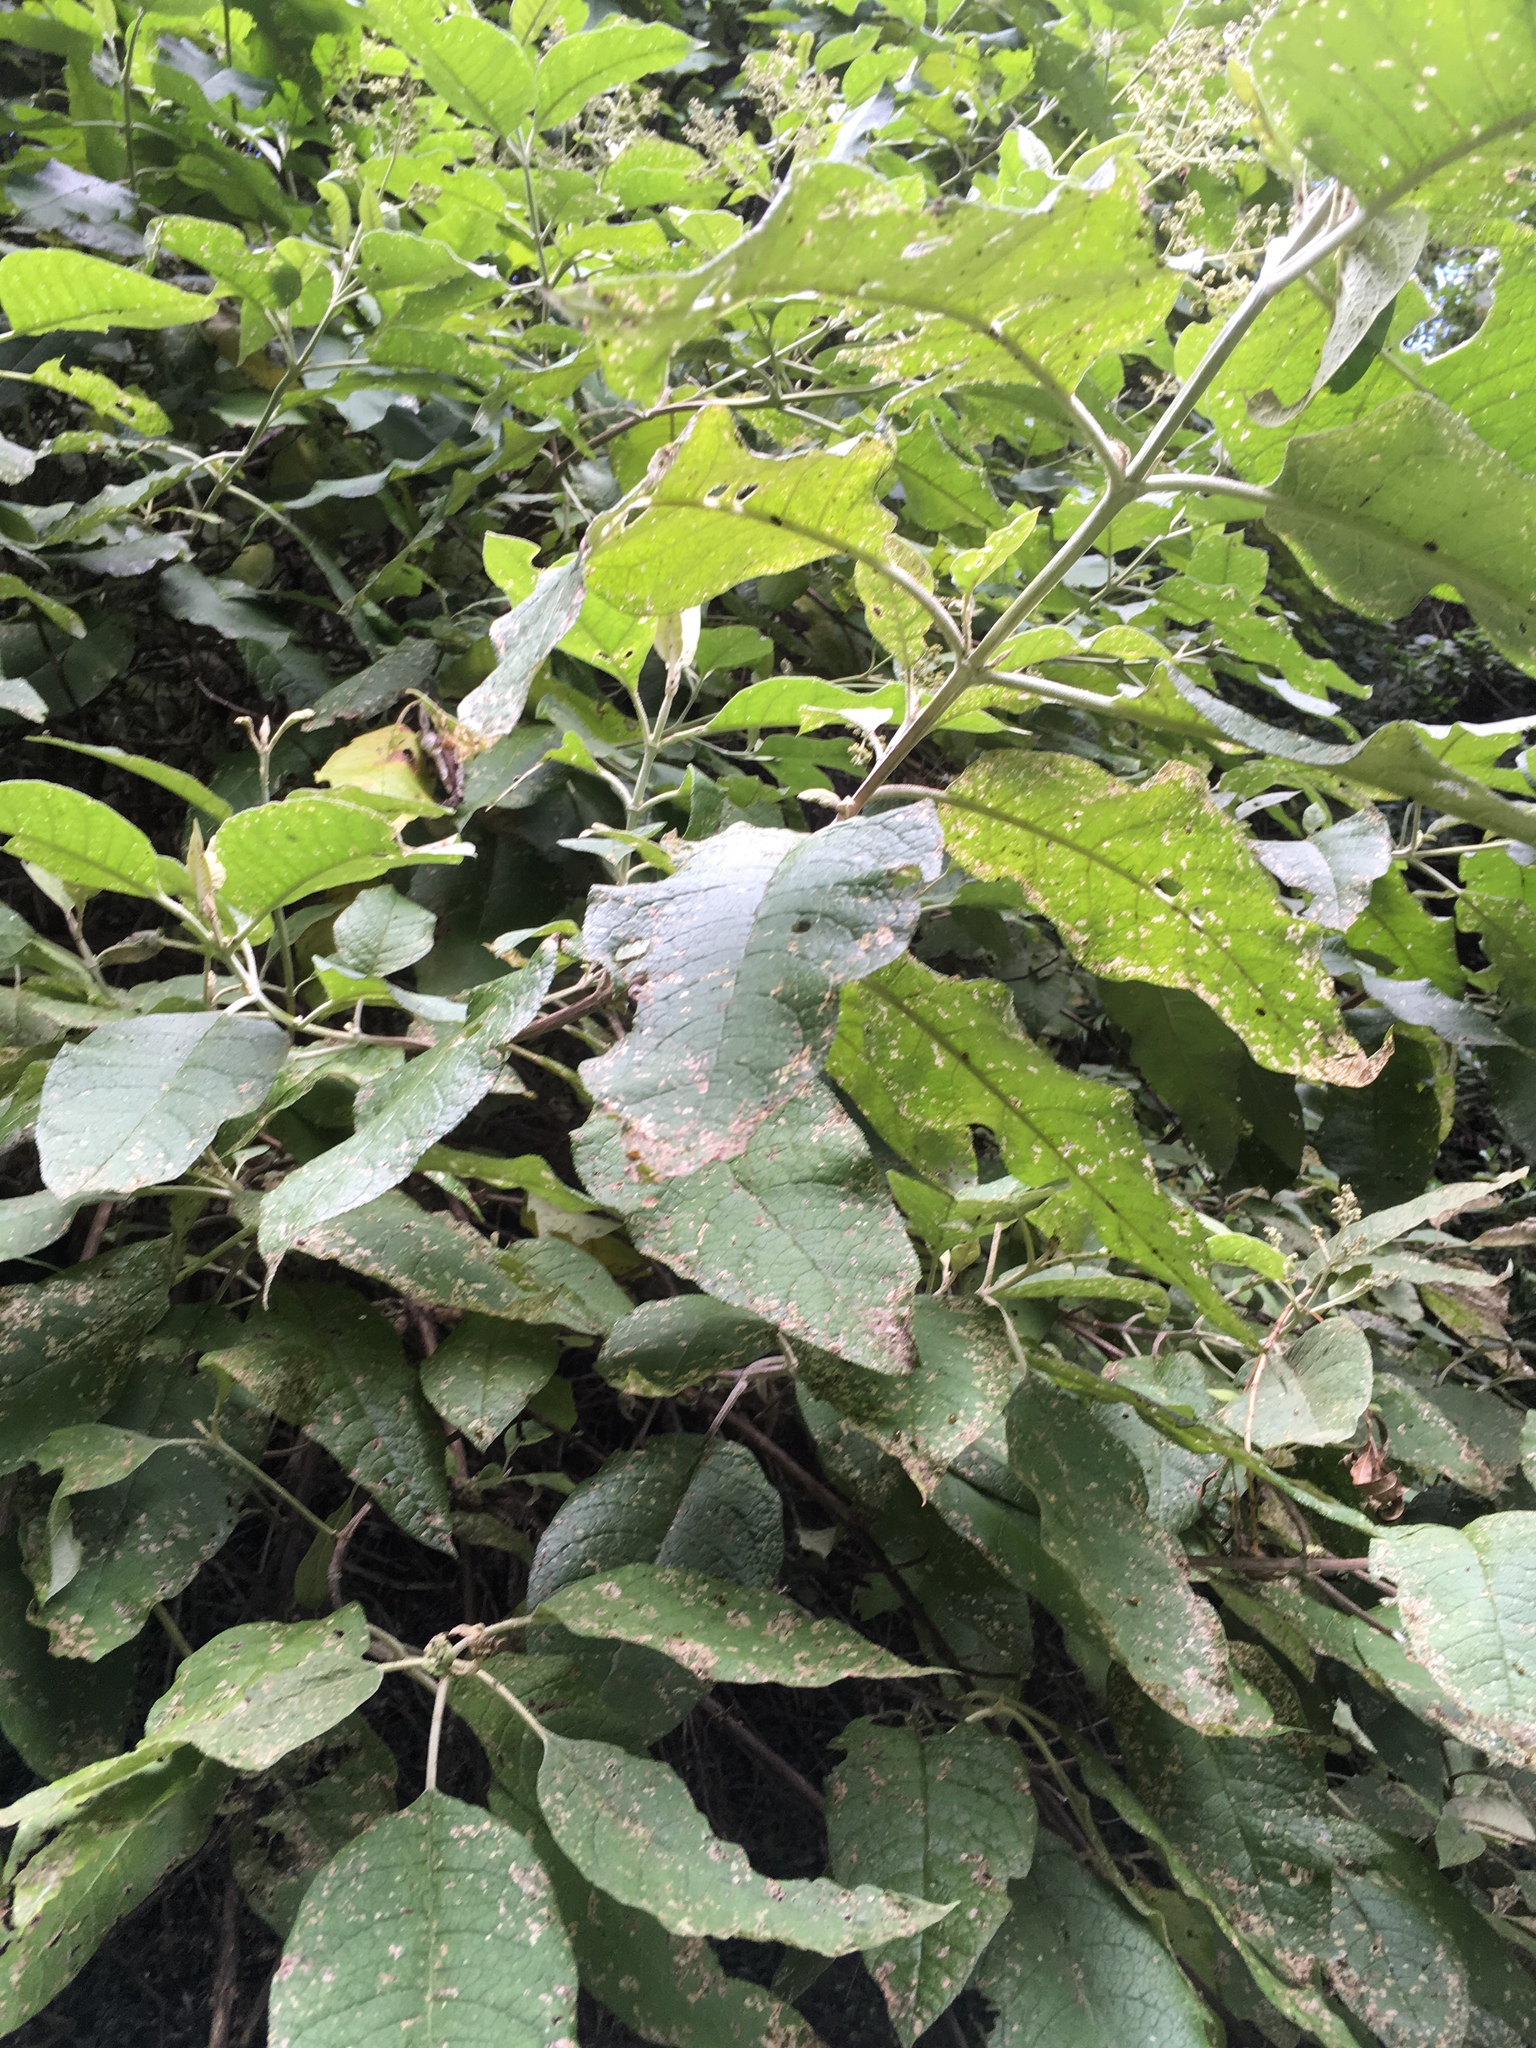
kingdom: Animalia
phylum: Arthropoda
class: Insecta
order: Coleoptera
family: Curculionidae
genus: Cleopus
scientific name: Cleopus japonicus
